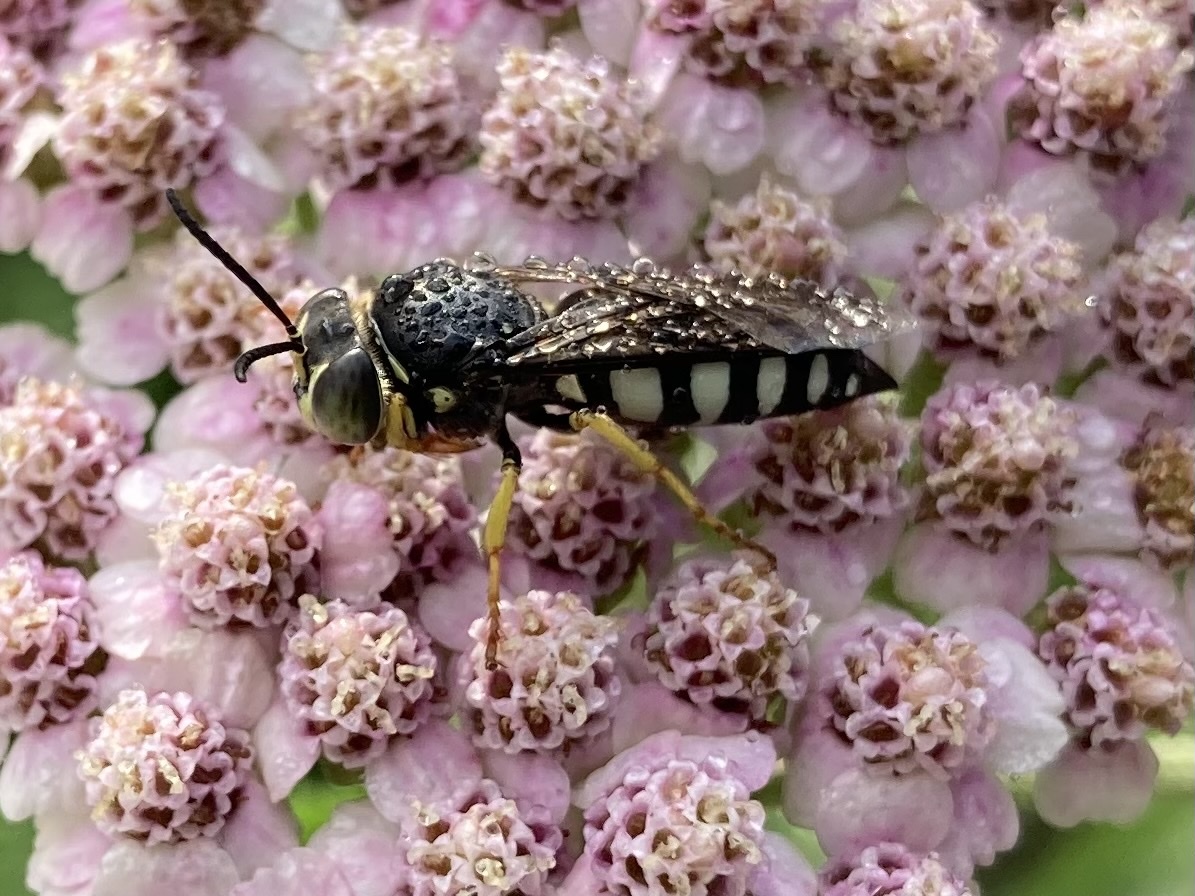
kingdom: Animalia
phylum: Arthropoda
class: Insecta
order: Hymenoptera
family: Crabronidae
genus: Bicyrtes
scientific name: Bicyrtes quadrifasciatus
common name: Four-banded stink bug hunter wasp
